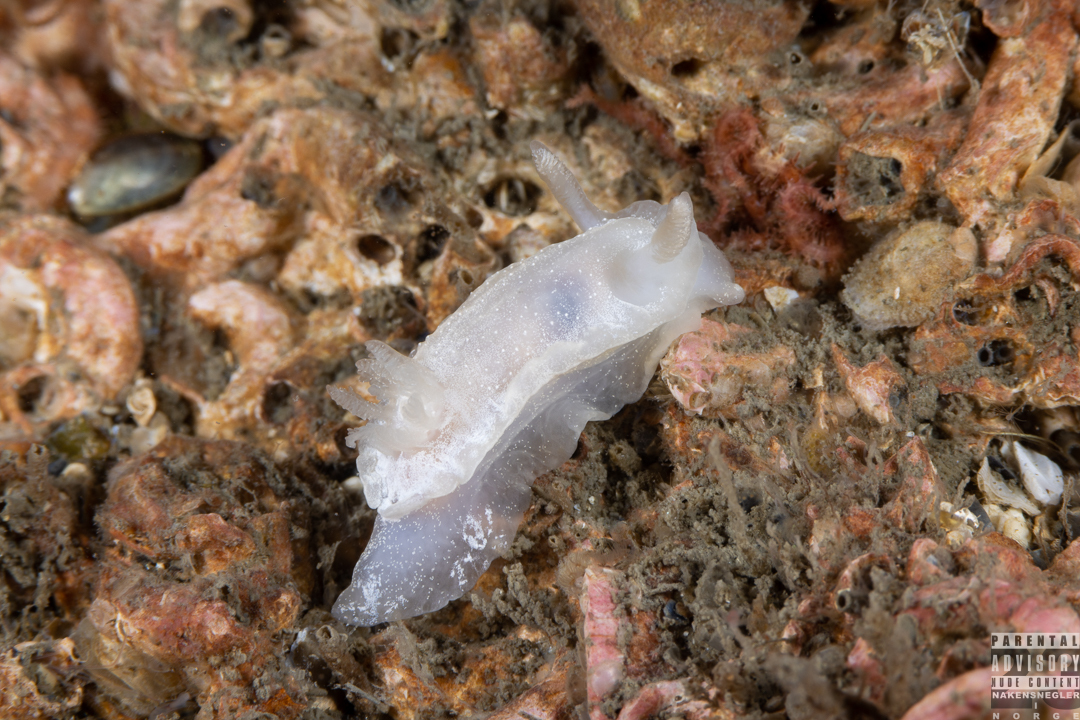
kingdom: Animalia
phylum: Mollusca
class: Gastropoda
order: Nudibranchia
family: Goniodorididae
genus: Okenia
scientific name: Okenia
